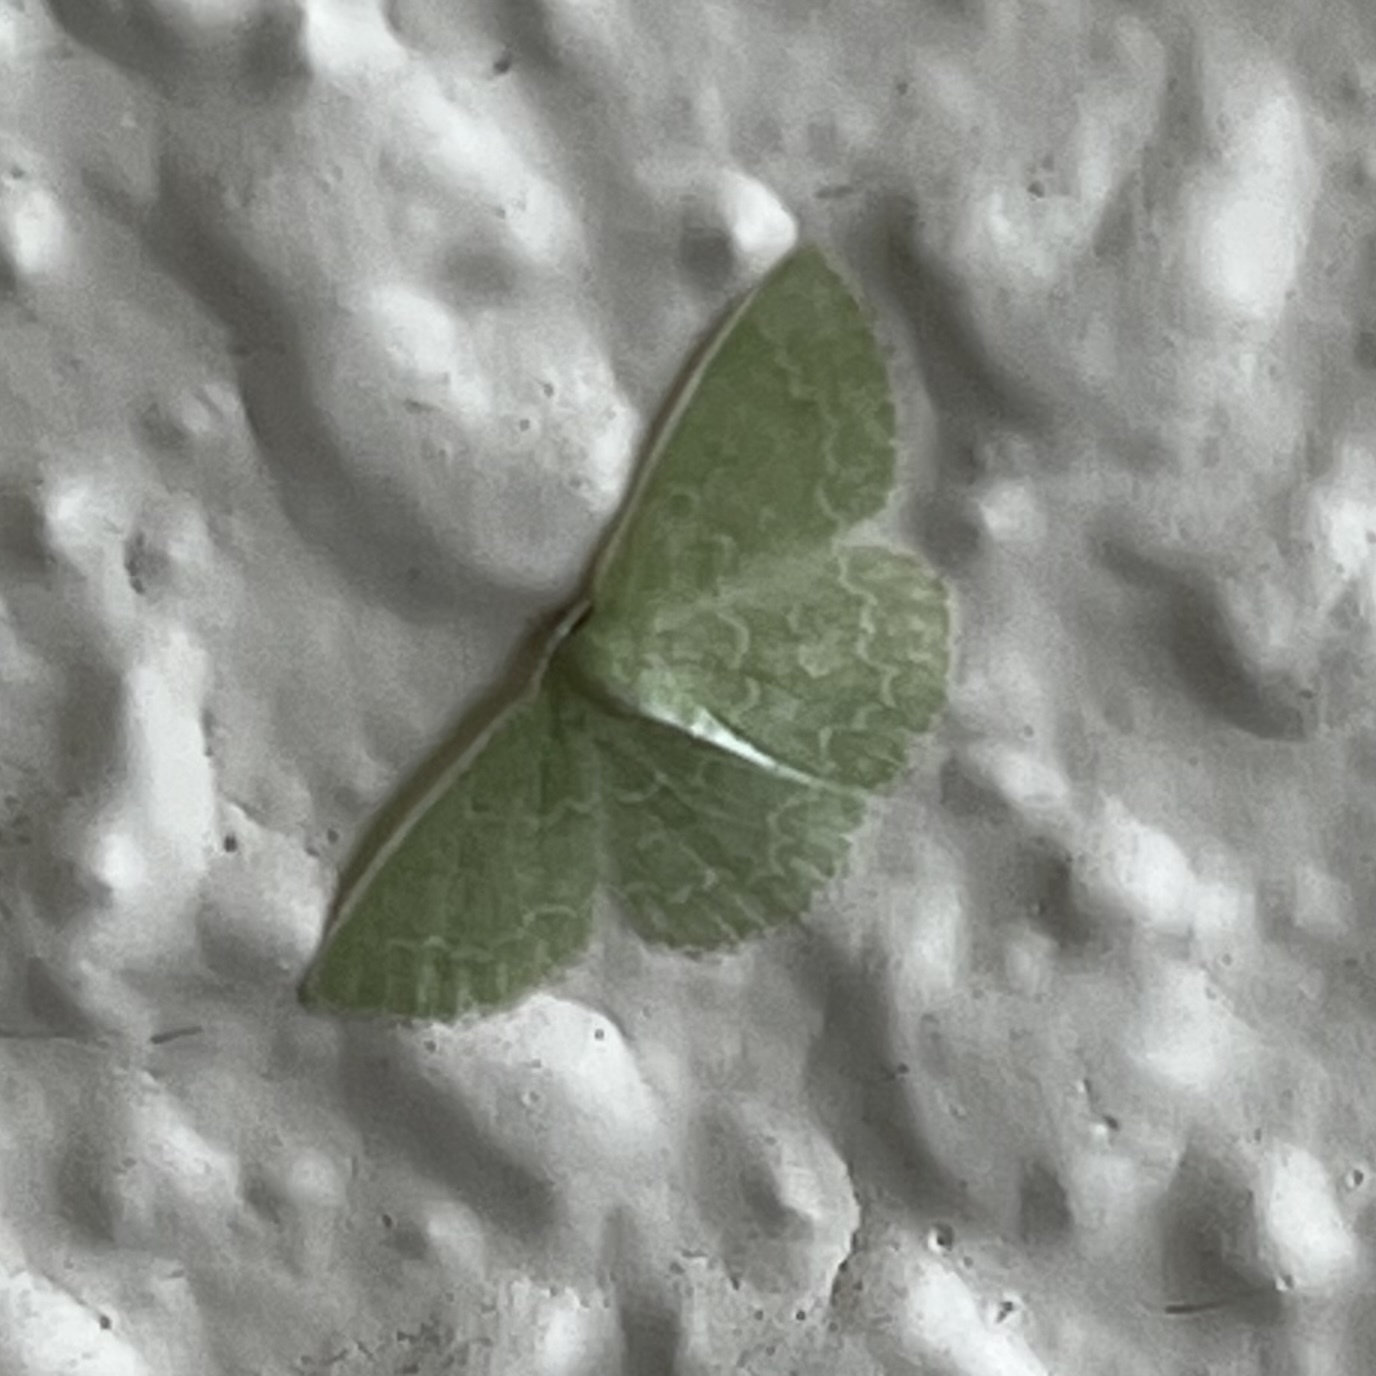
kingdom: Animalia
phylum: Arthropoda
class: Insecta
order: Lepidoptera
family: Geometridae
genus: Synchlora
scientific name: Synchlora frondaria
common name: Southern emerald
